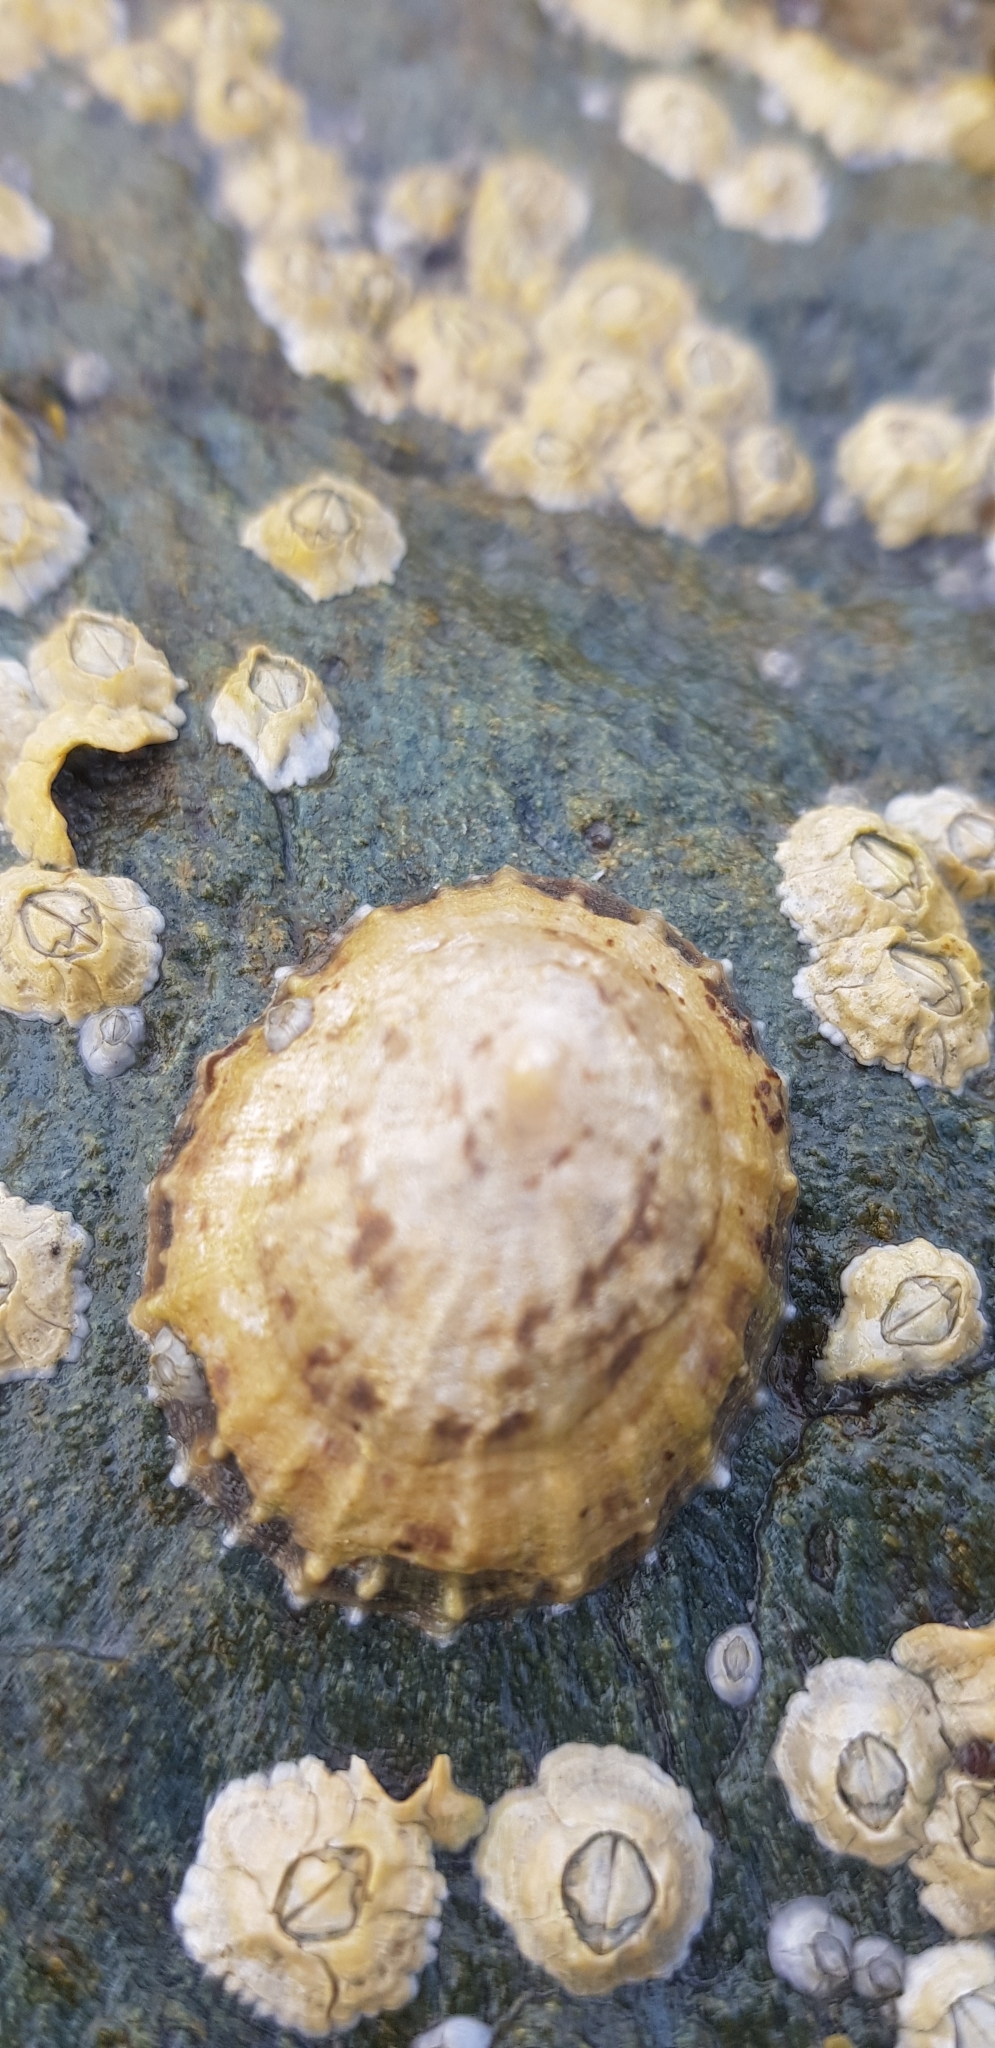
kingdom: Animalia
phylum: Mollusca
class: Gastropoda
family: Patellidae
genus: Patella
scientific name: Patella vulgata
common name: Common limpet
